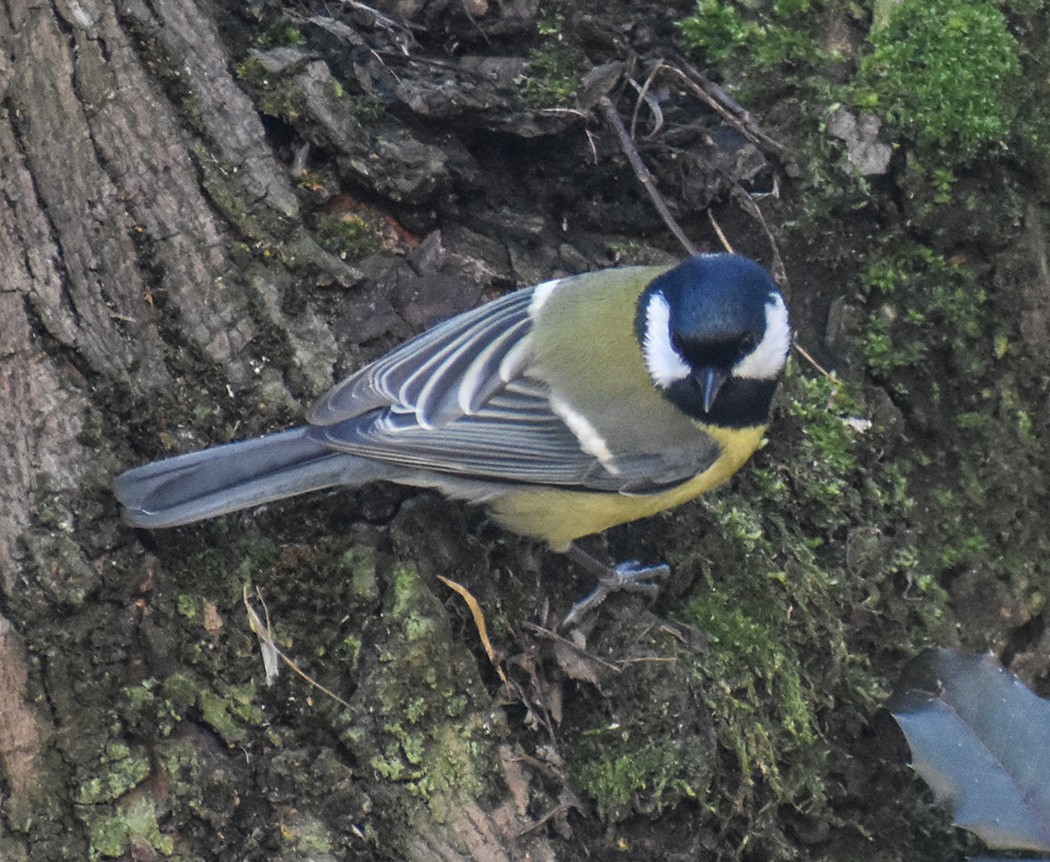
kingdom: Animalia
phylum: Chordata
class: Aves
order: Passeriformes
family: Paridae
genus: Parus
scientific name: Parus major
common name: Great tit
